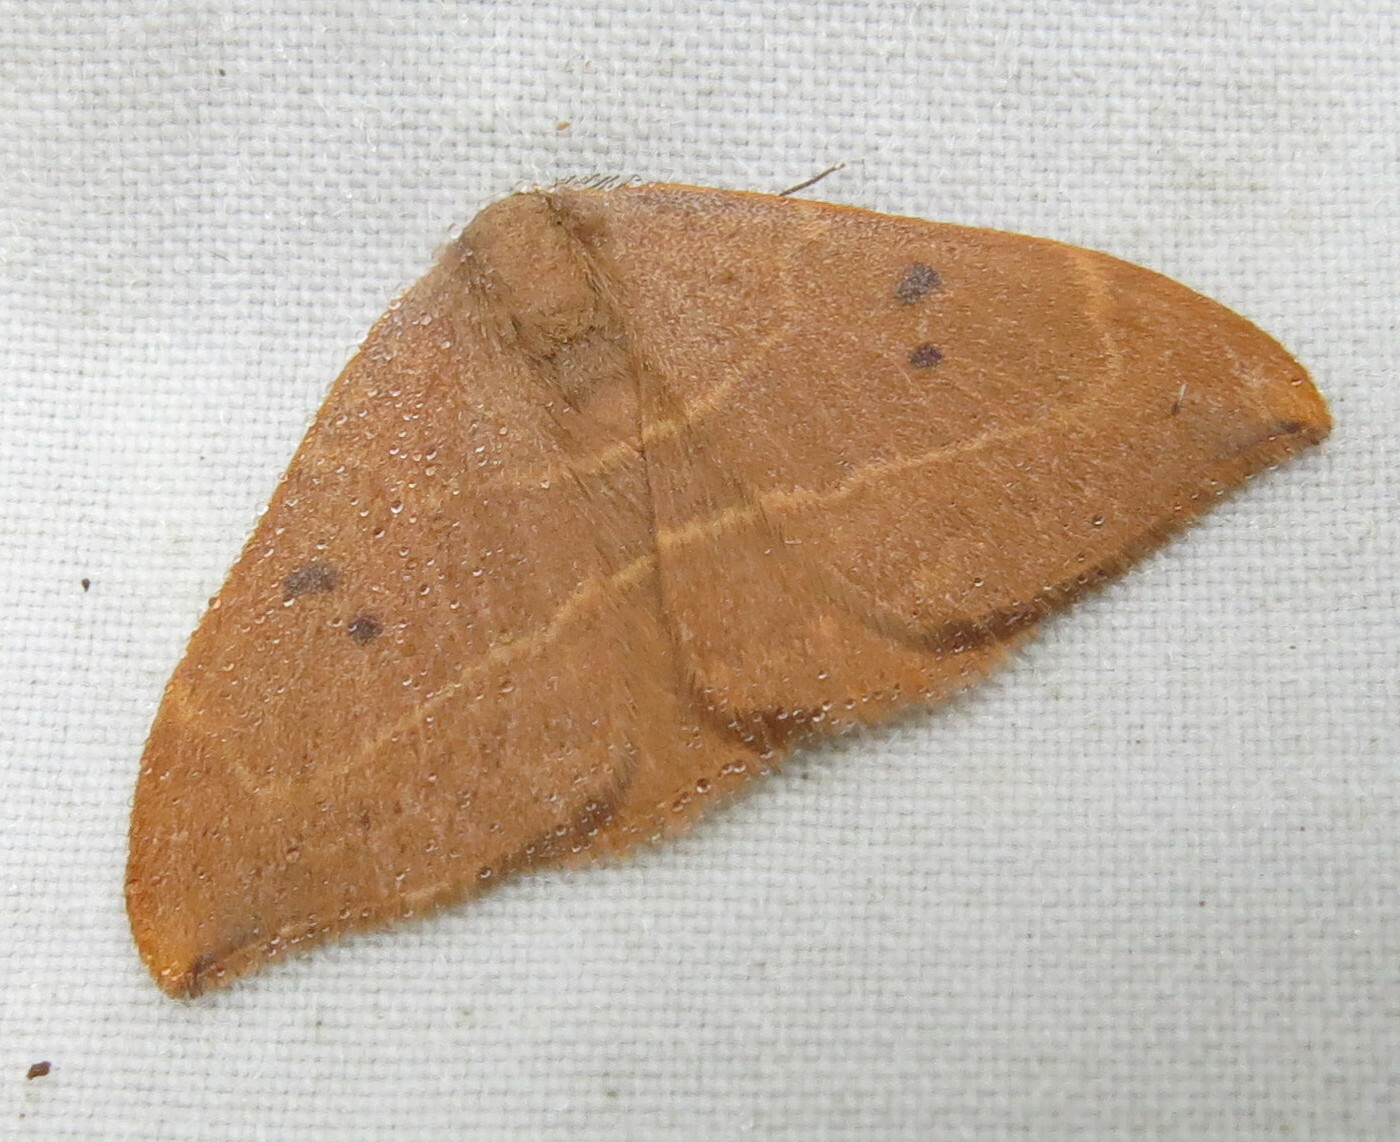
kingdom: Animalia
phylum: Arthropoda
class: Insecta
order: Lepidoptera
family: Drepanidae
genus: Watsonalla
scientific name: Watsonalla binaria
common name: Oak hook-tip
